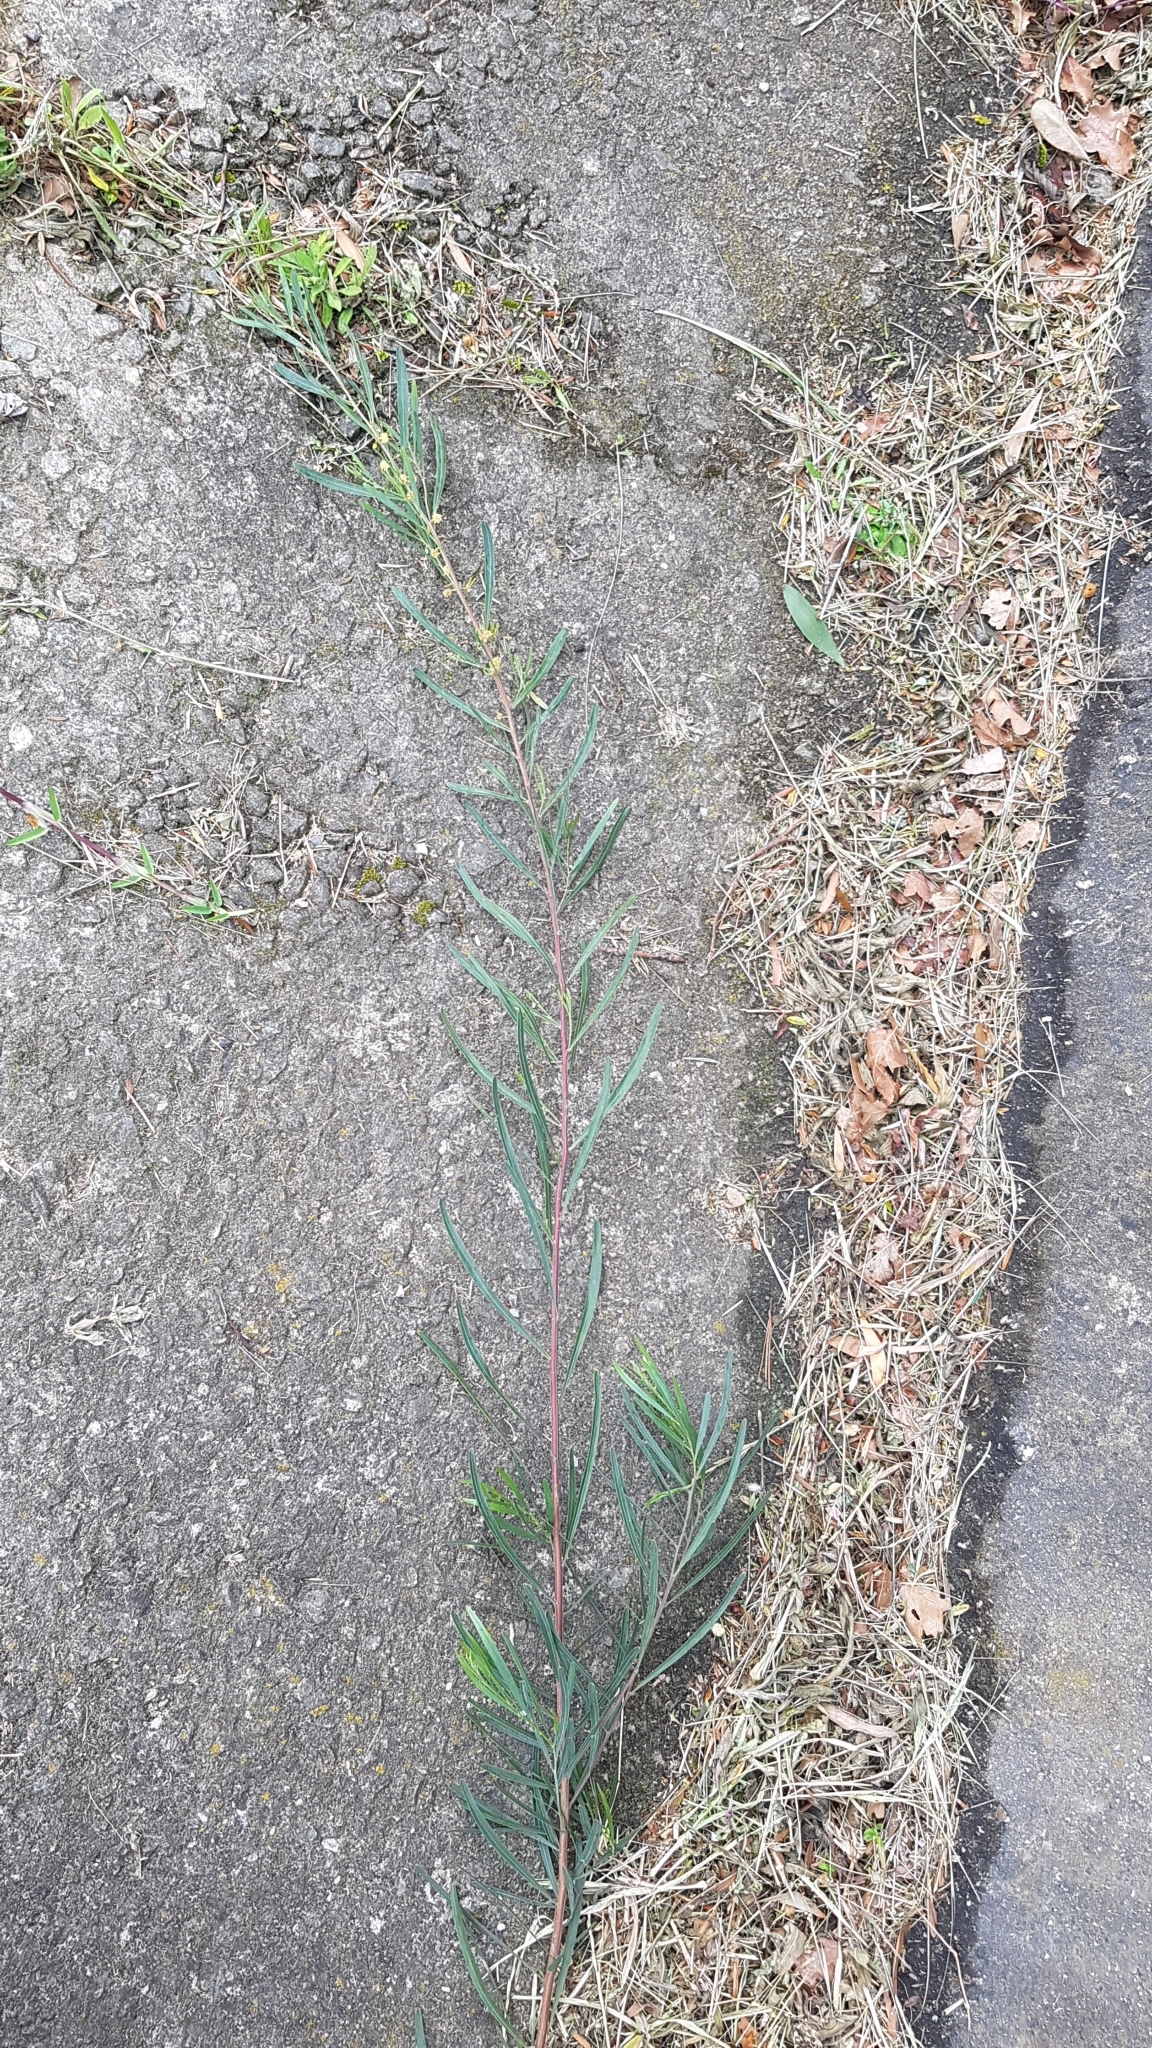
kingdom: Plantae
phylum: Tracheophyta
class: Magnoliopsida
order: Fabales
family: Fabaceae
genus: Acacia
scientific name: Acacia stricta
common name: Hop wattle
